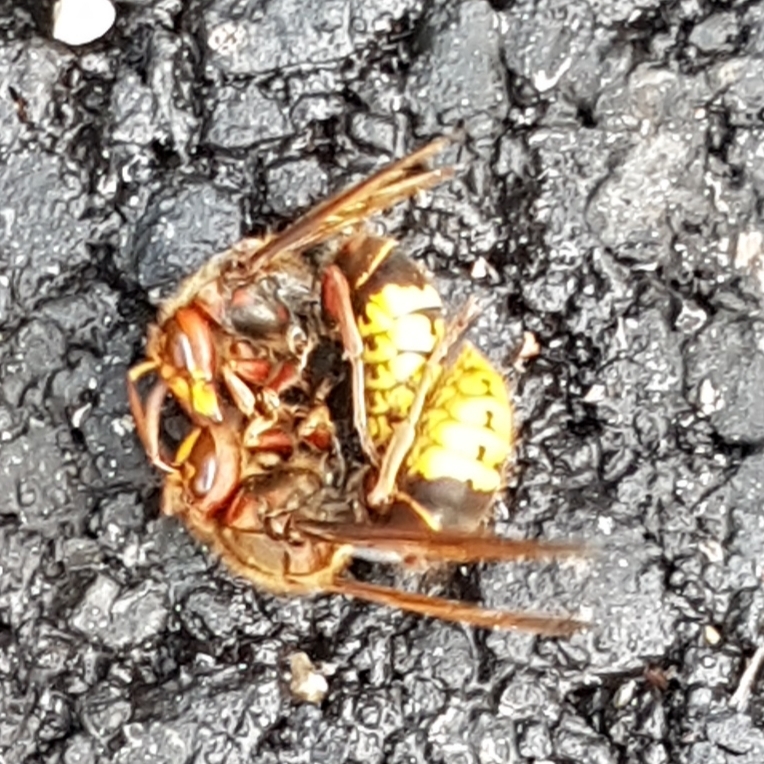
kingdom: Animalia
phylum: Arthropoda
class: Insecta
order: Hymenoptera
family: Vespidae
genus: Vespa
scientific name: Vespa crabro
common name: Hornet
